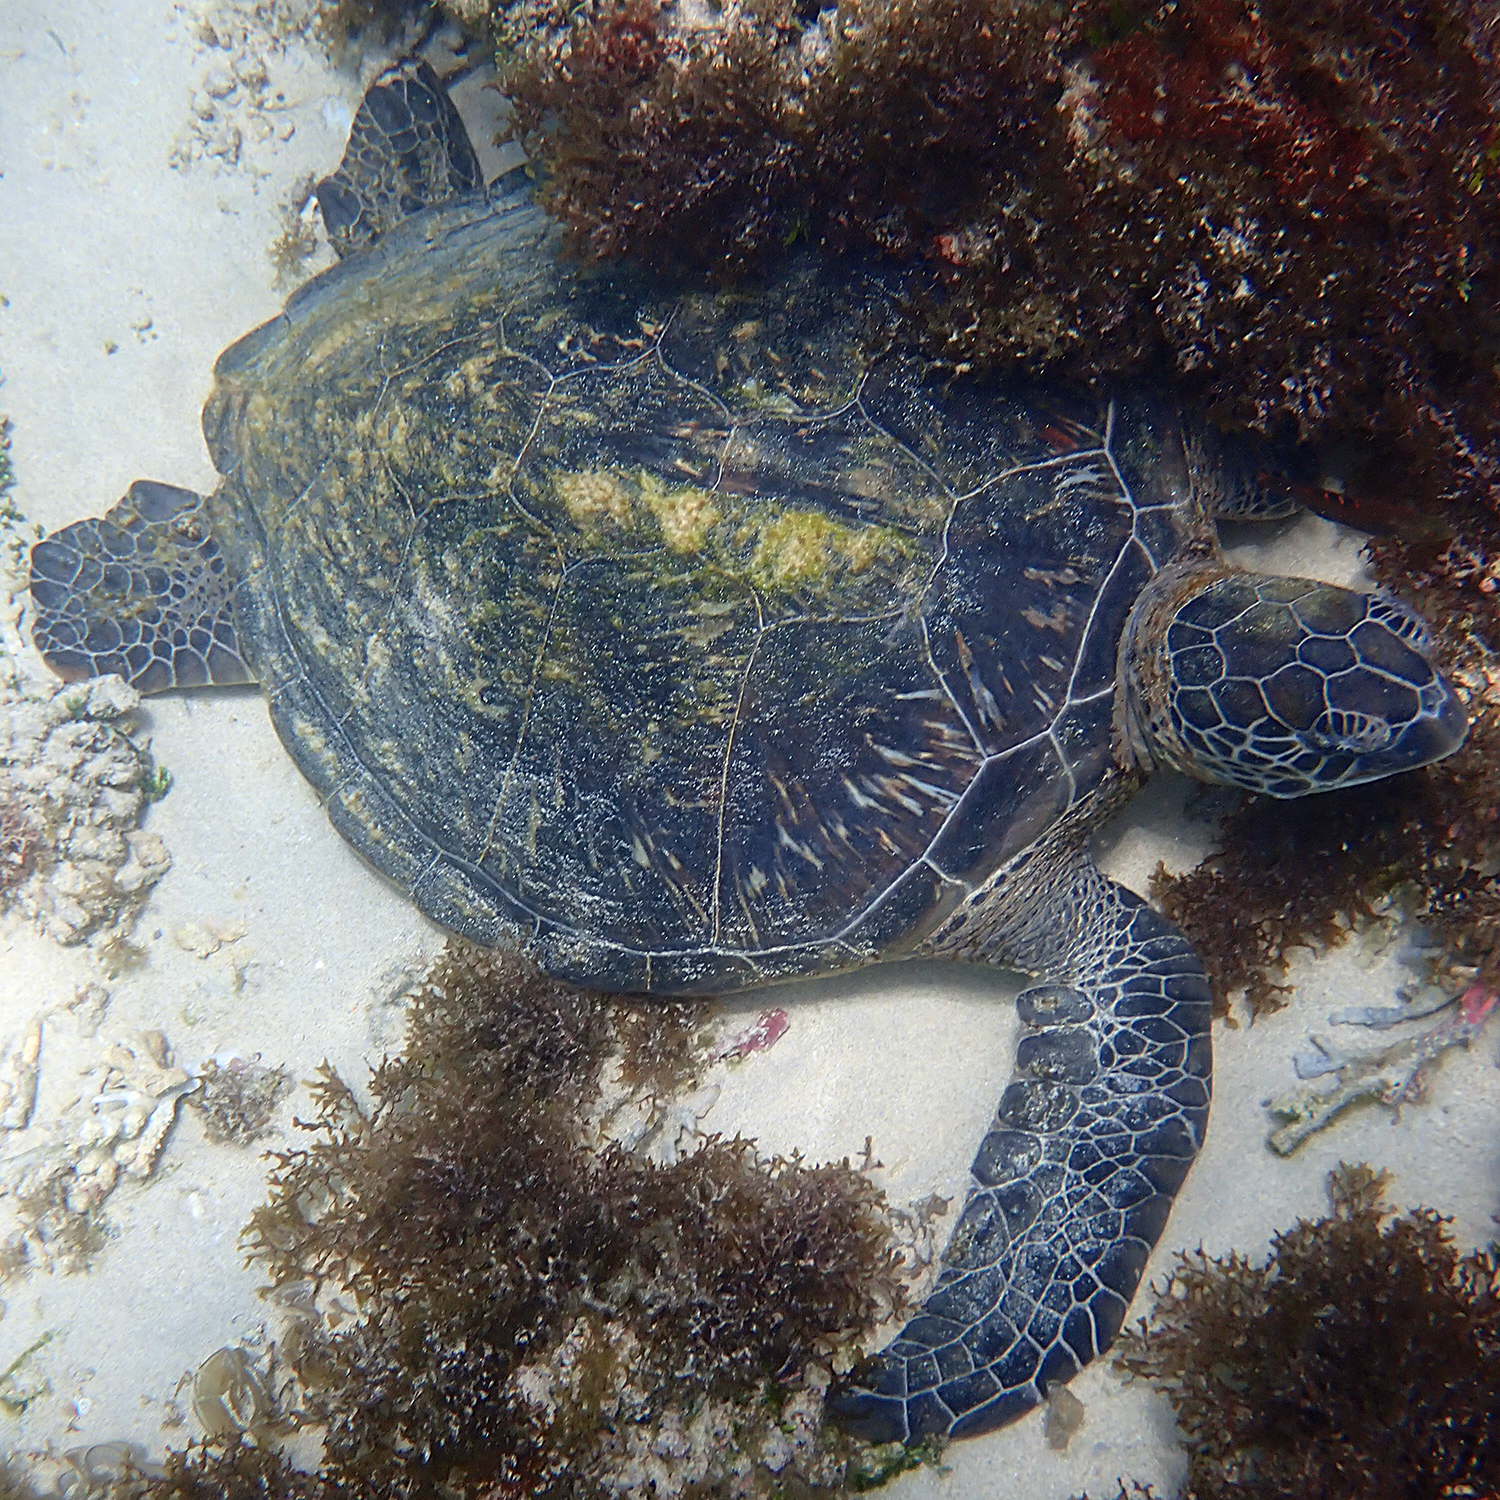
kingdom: Animalia
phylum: Chordata
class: Testudines
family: Cheloniidae
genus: Chelonia
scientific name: Chelonia mydas
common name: Green turtle
